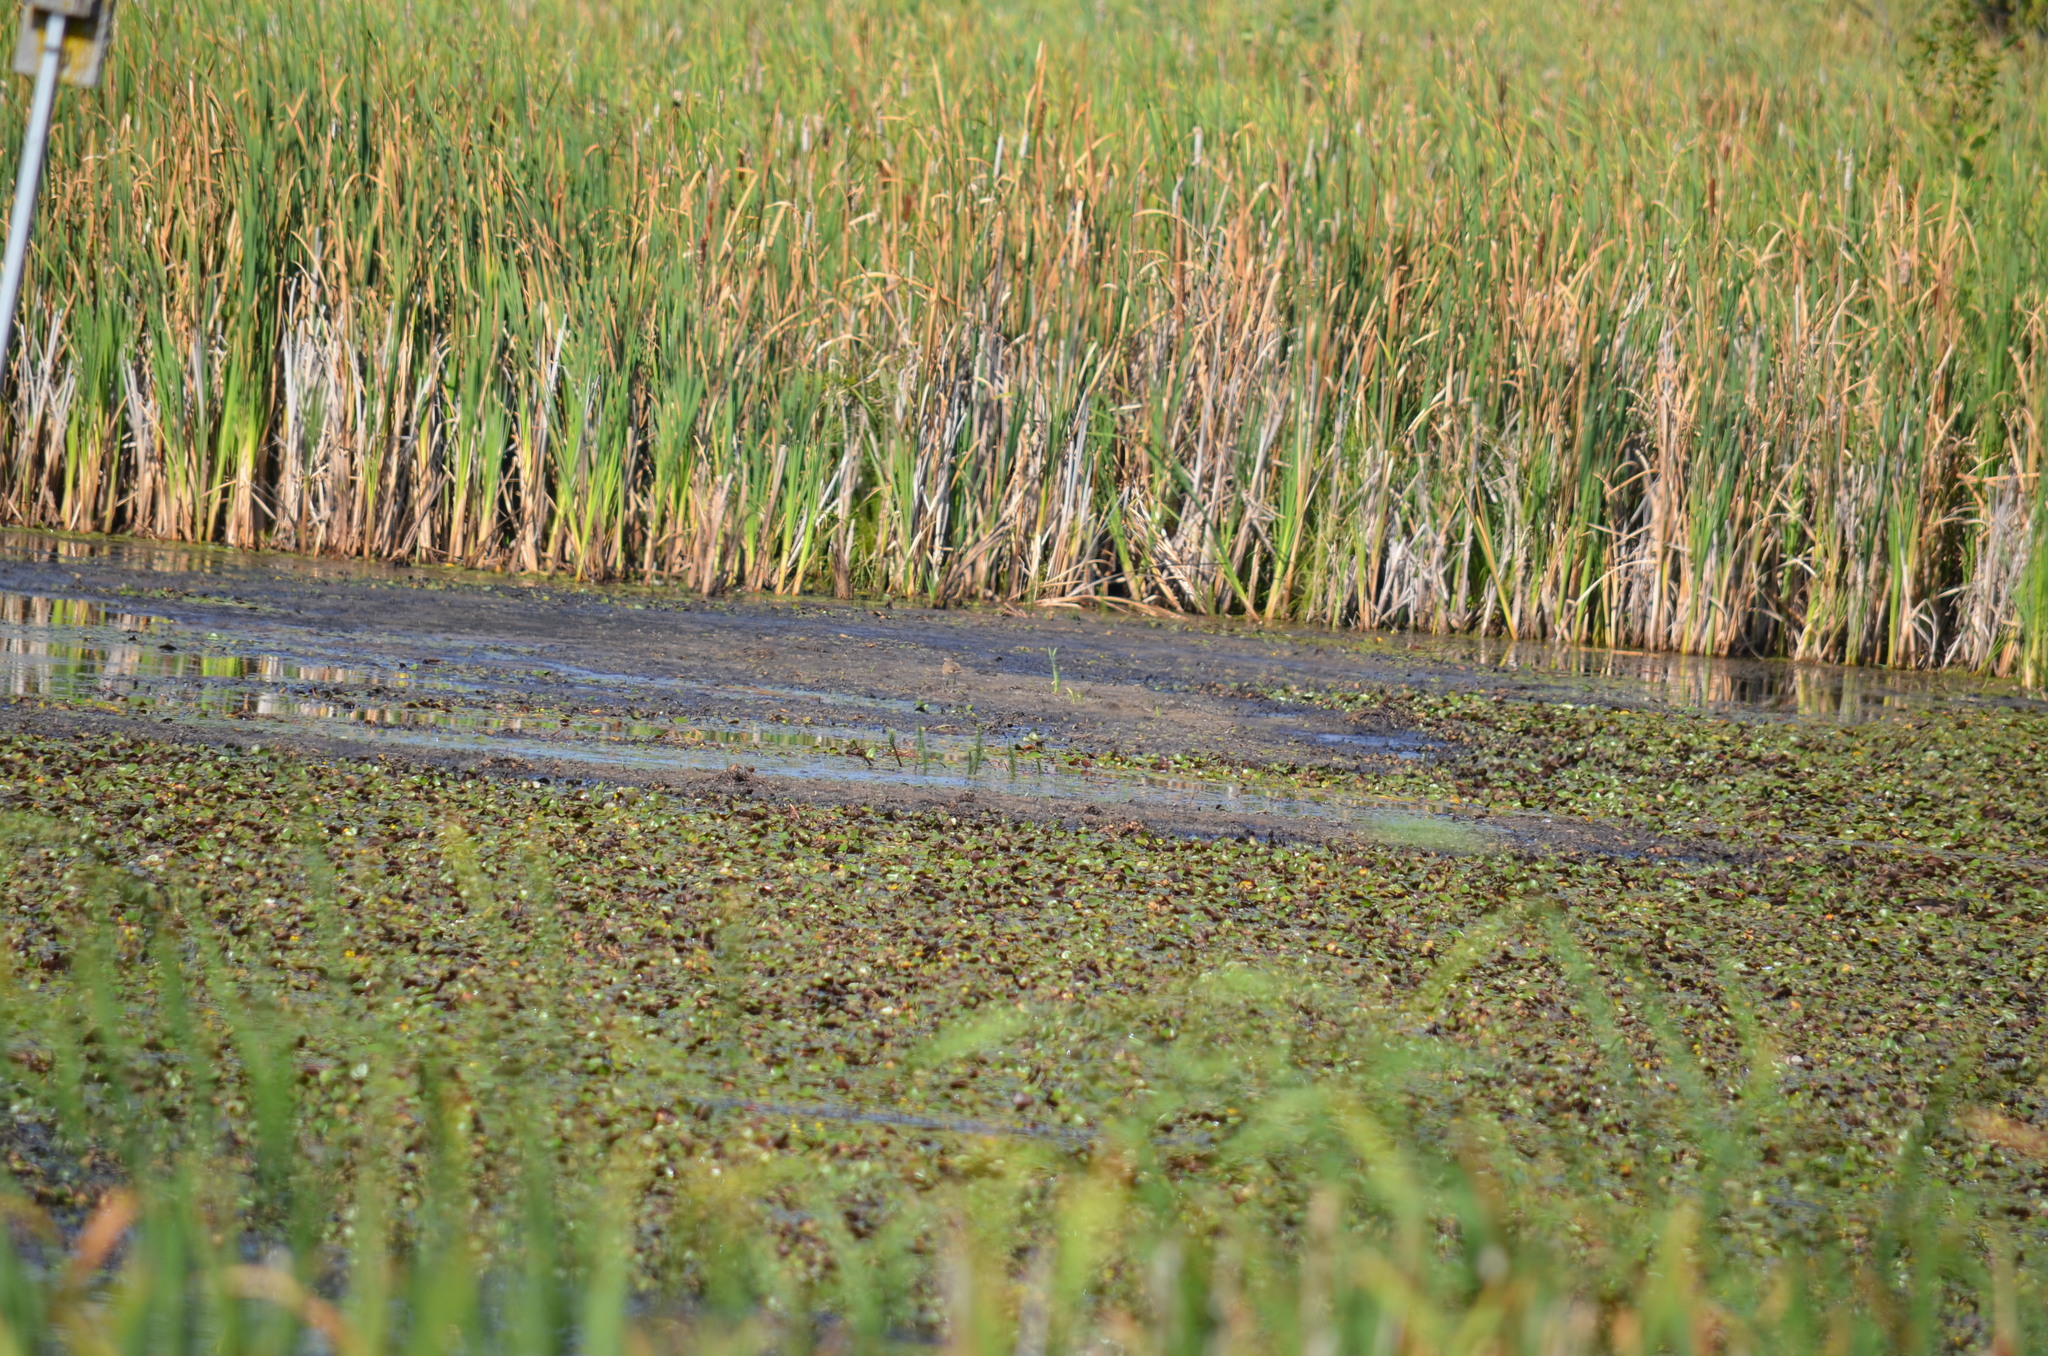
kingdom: Animalia
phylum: Chordata
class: Aves
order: Charadriiformes
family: Charadriidae
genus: Charadrius
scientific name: Charadrius vociferus
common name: Killdeer
